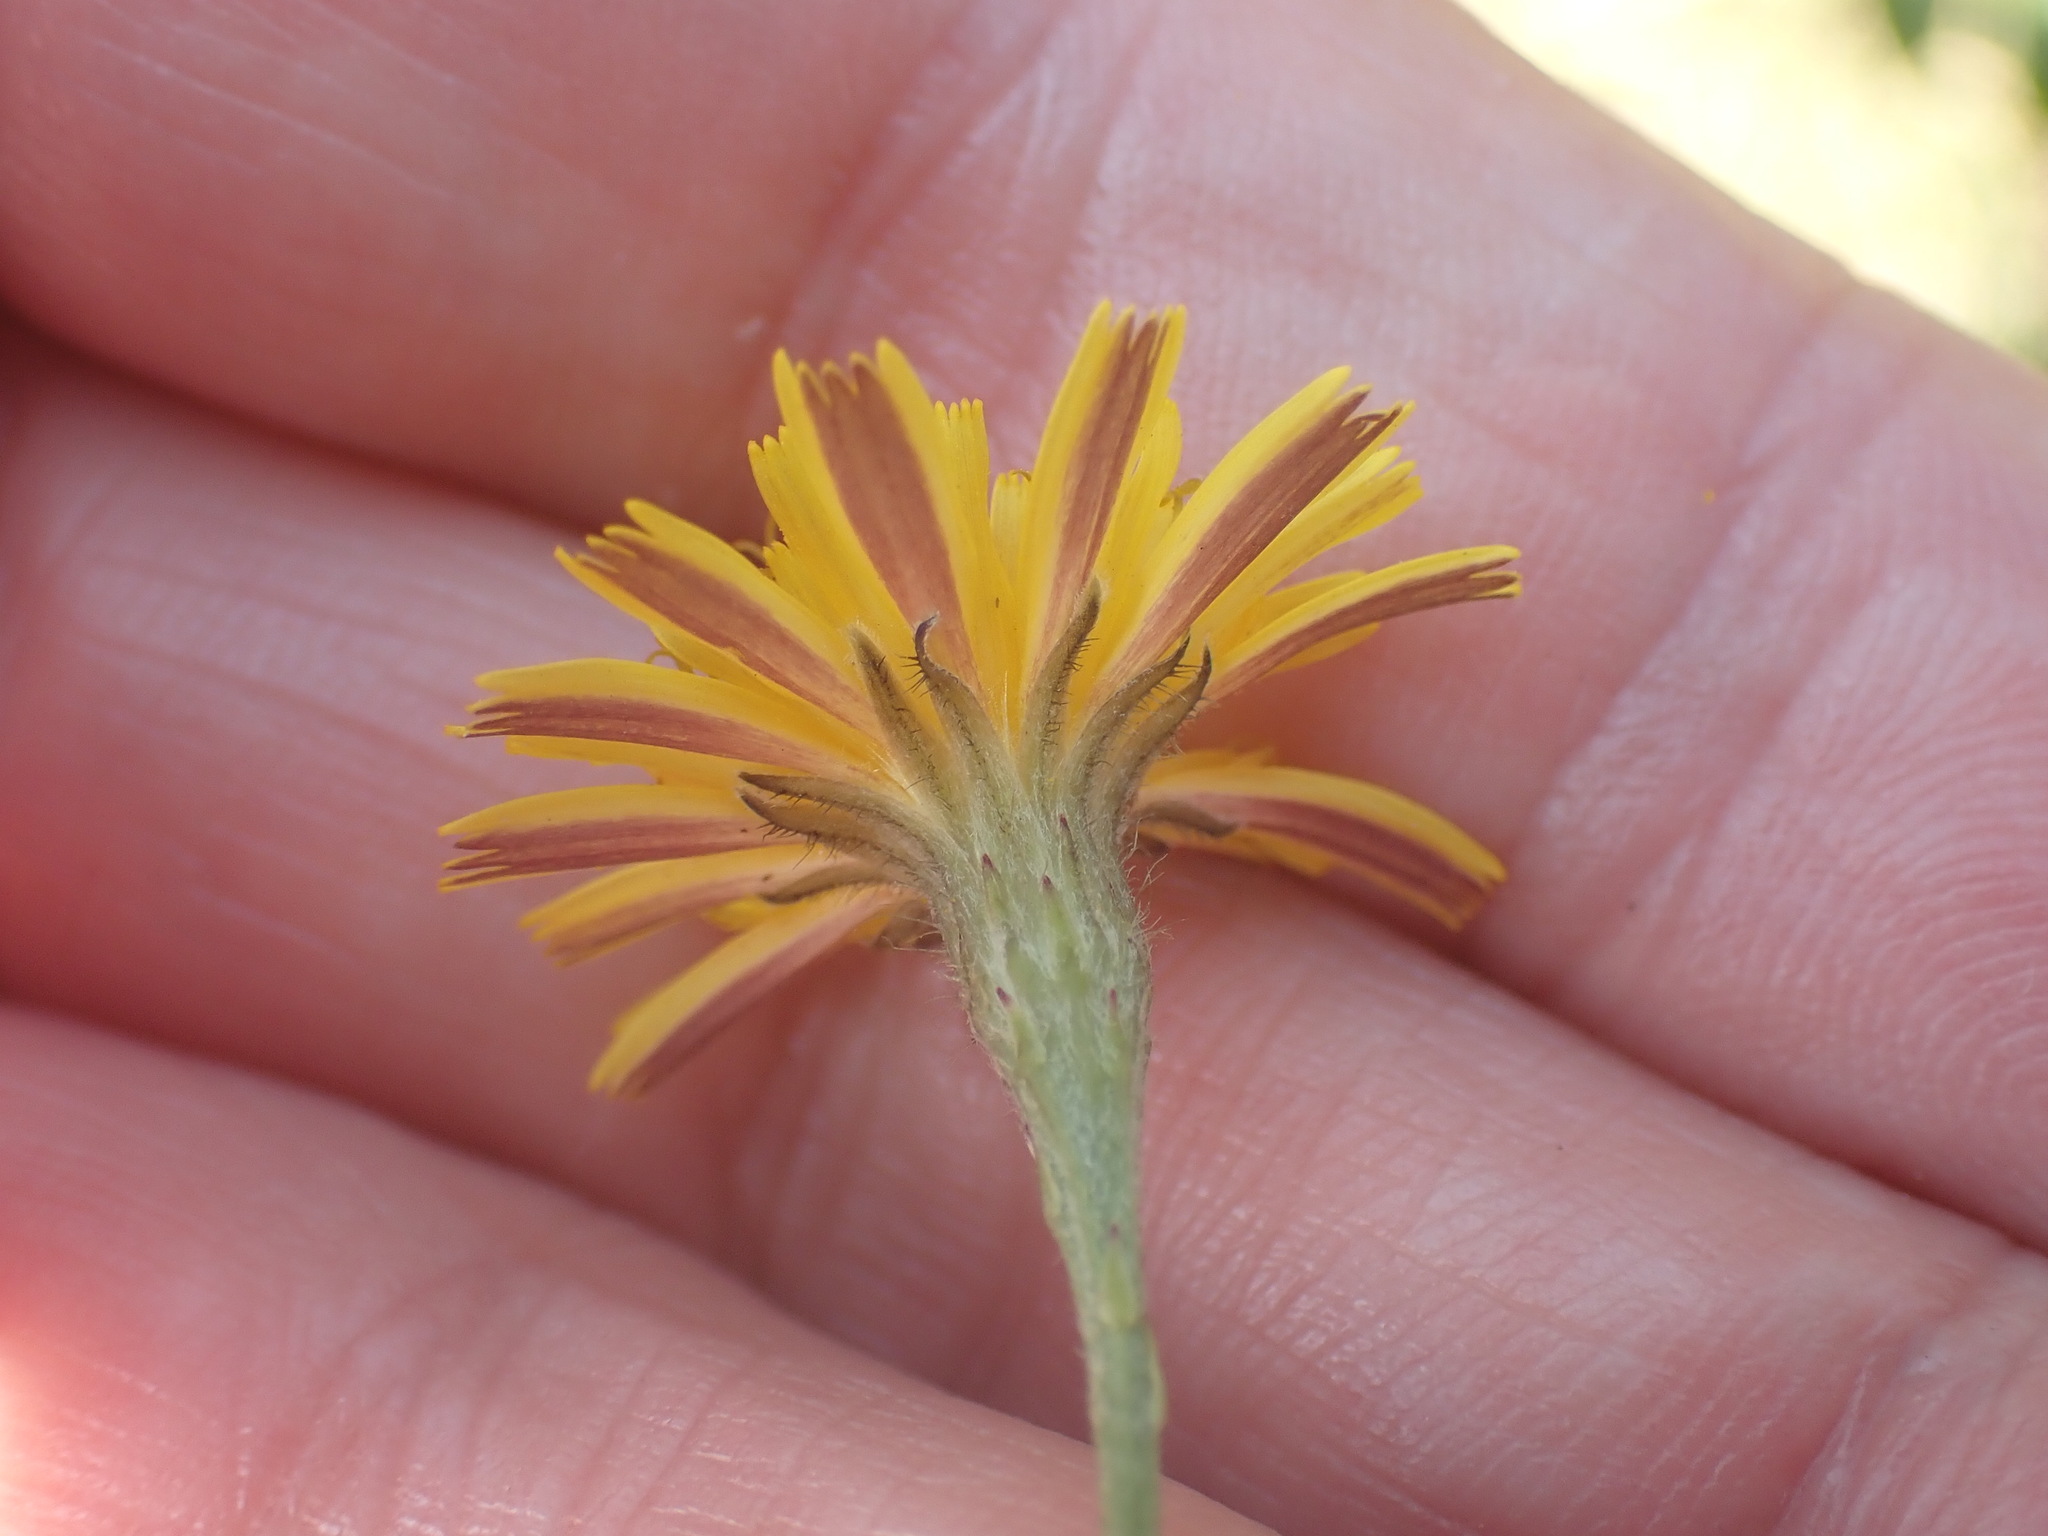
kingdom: Plantae
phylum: Tracheophyta
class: Magnoliopsida
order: Asterales
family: Asteraceae
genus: Scorzoneroides
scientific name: Scorzoneroides autumnalis
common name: Autumn hawkbit
